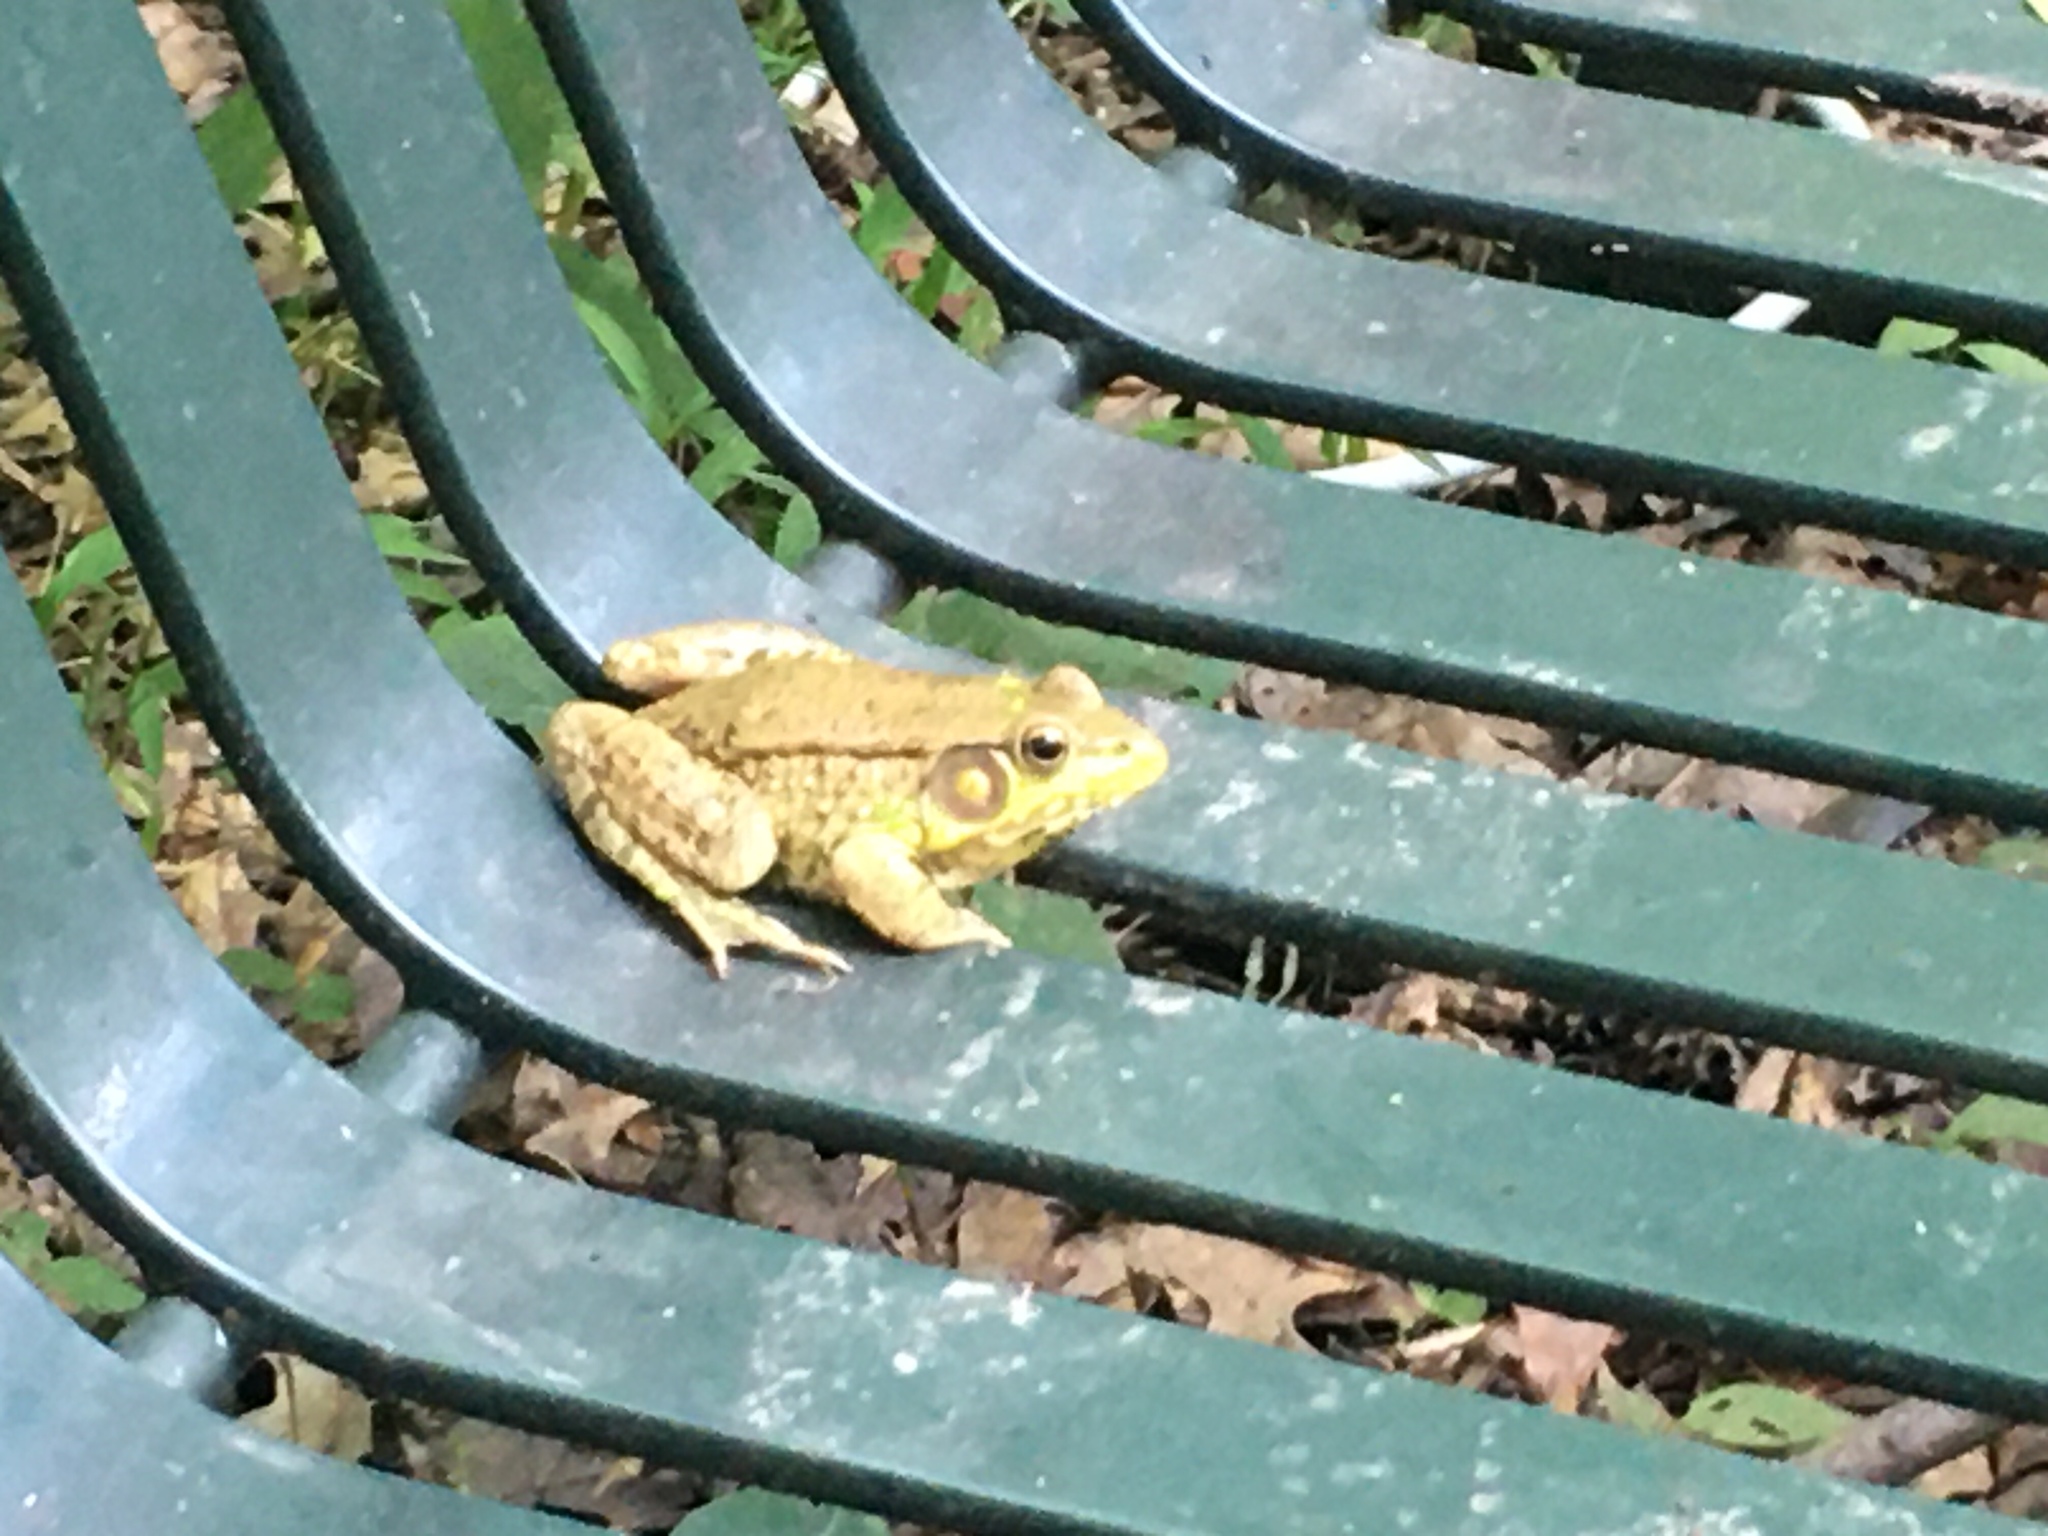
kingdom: Animalia
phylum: Chordata
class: Amphibia
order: Anura
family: Ranidae
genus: Lithobates
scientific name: Lithobates clamitans
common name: Green frog
